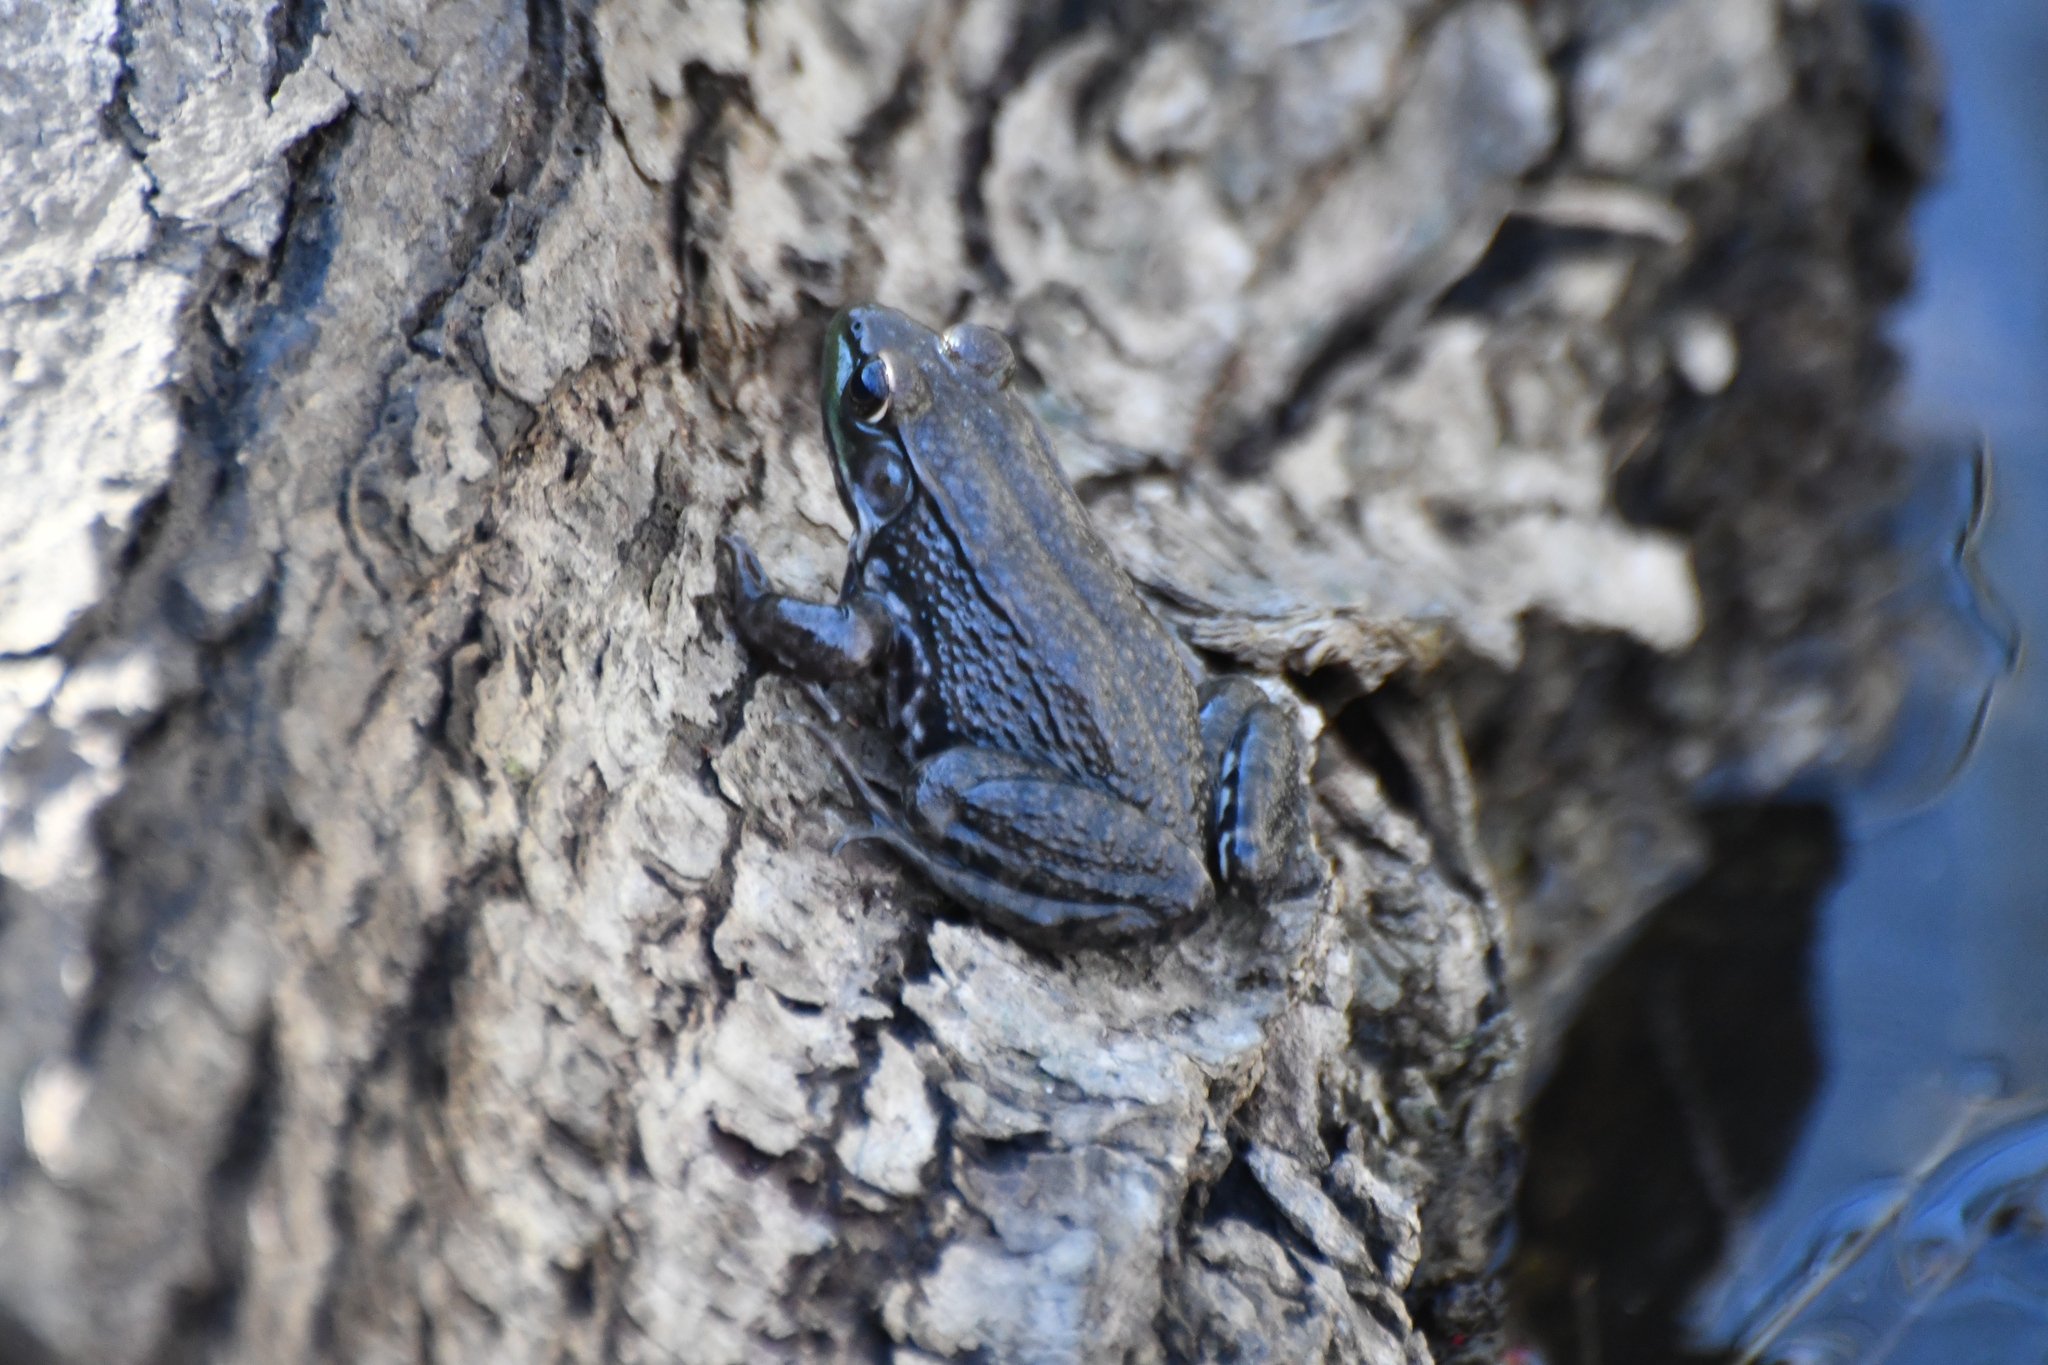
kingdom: Animalia
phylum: Chordata
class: Amphibia
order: Anura
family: Ranidae
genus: Lithobates
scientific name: Lithobates clamitans
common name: Green frog
